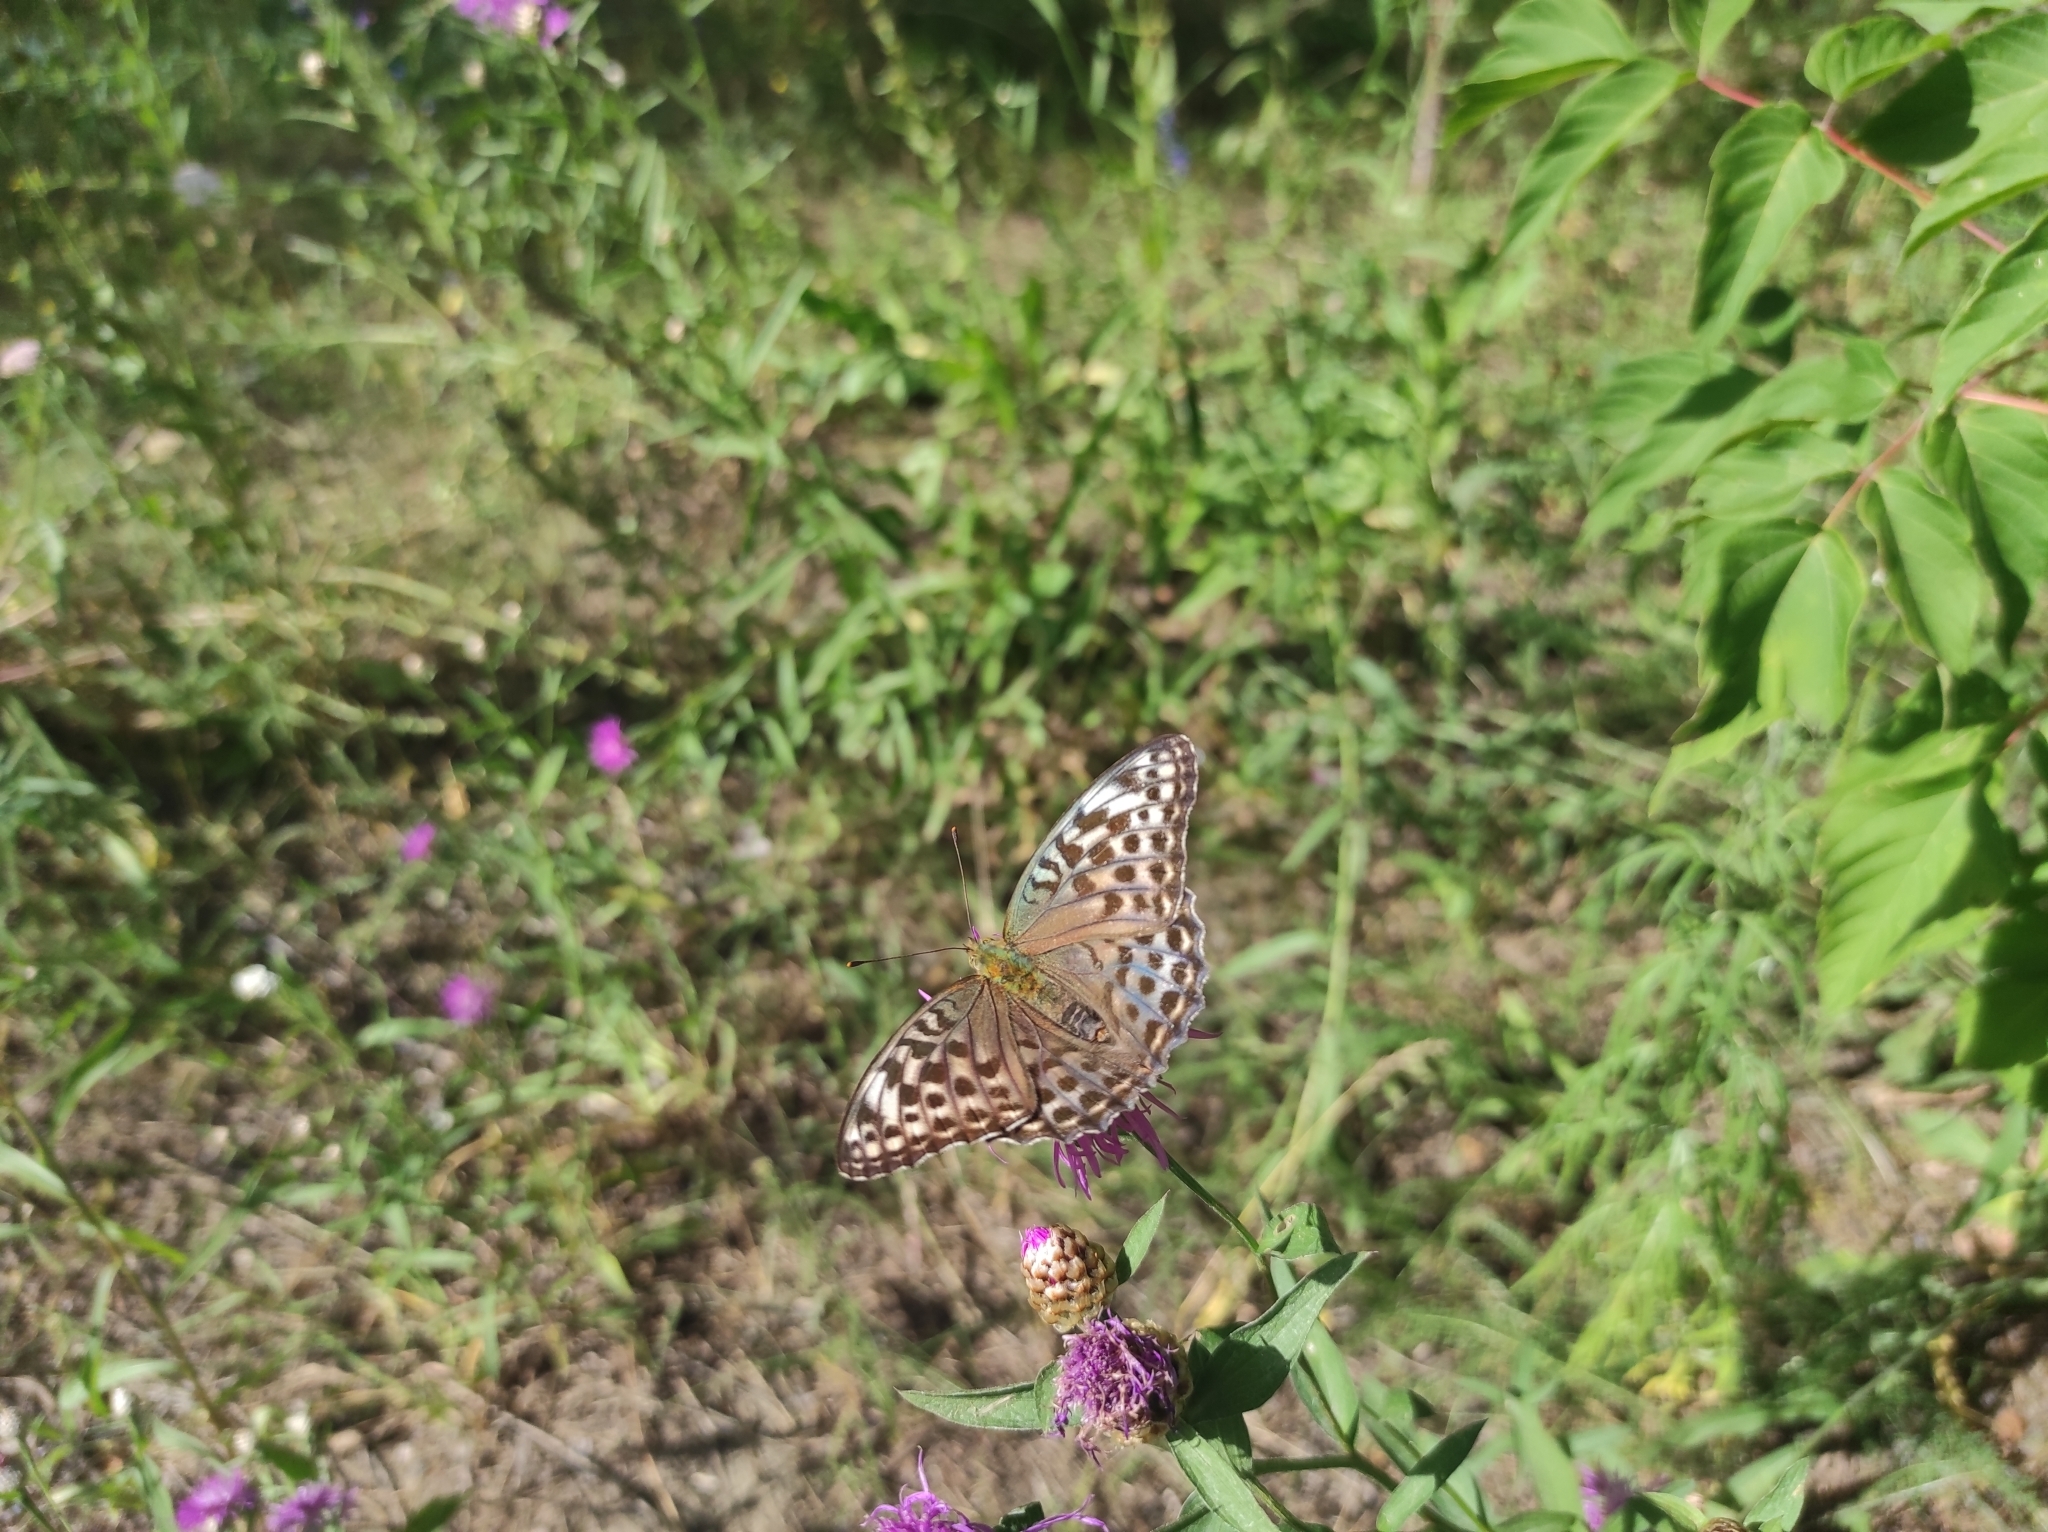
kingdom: Animalia
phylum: Arthropoda
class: Insecta
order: Lepidoptera
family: Nymphalidae
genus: Argynnis
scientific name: Argynnis paphia
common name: Silver-washed fritillary
